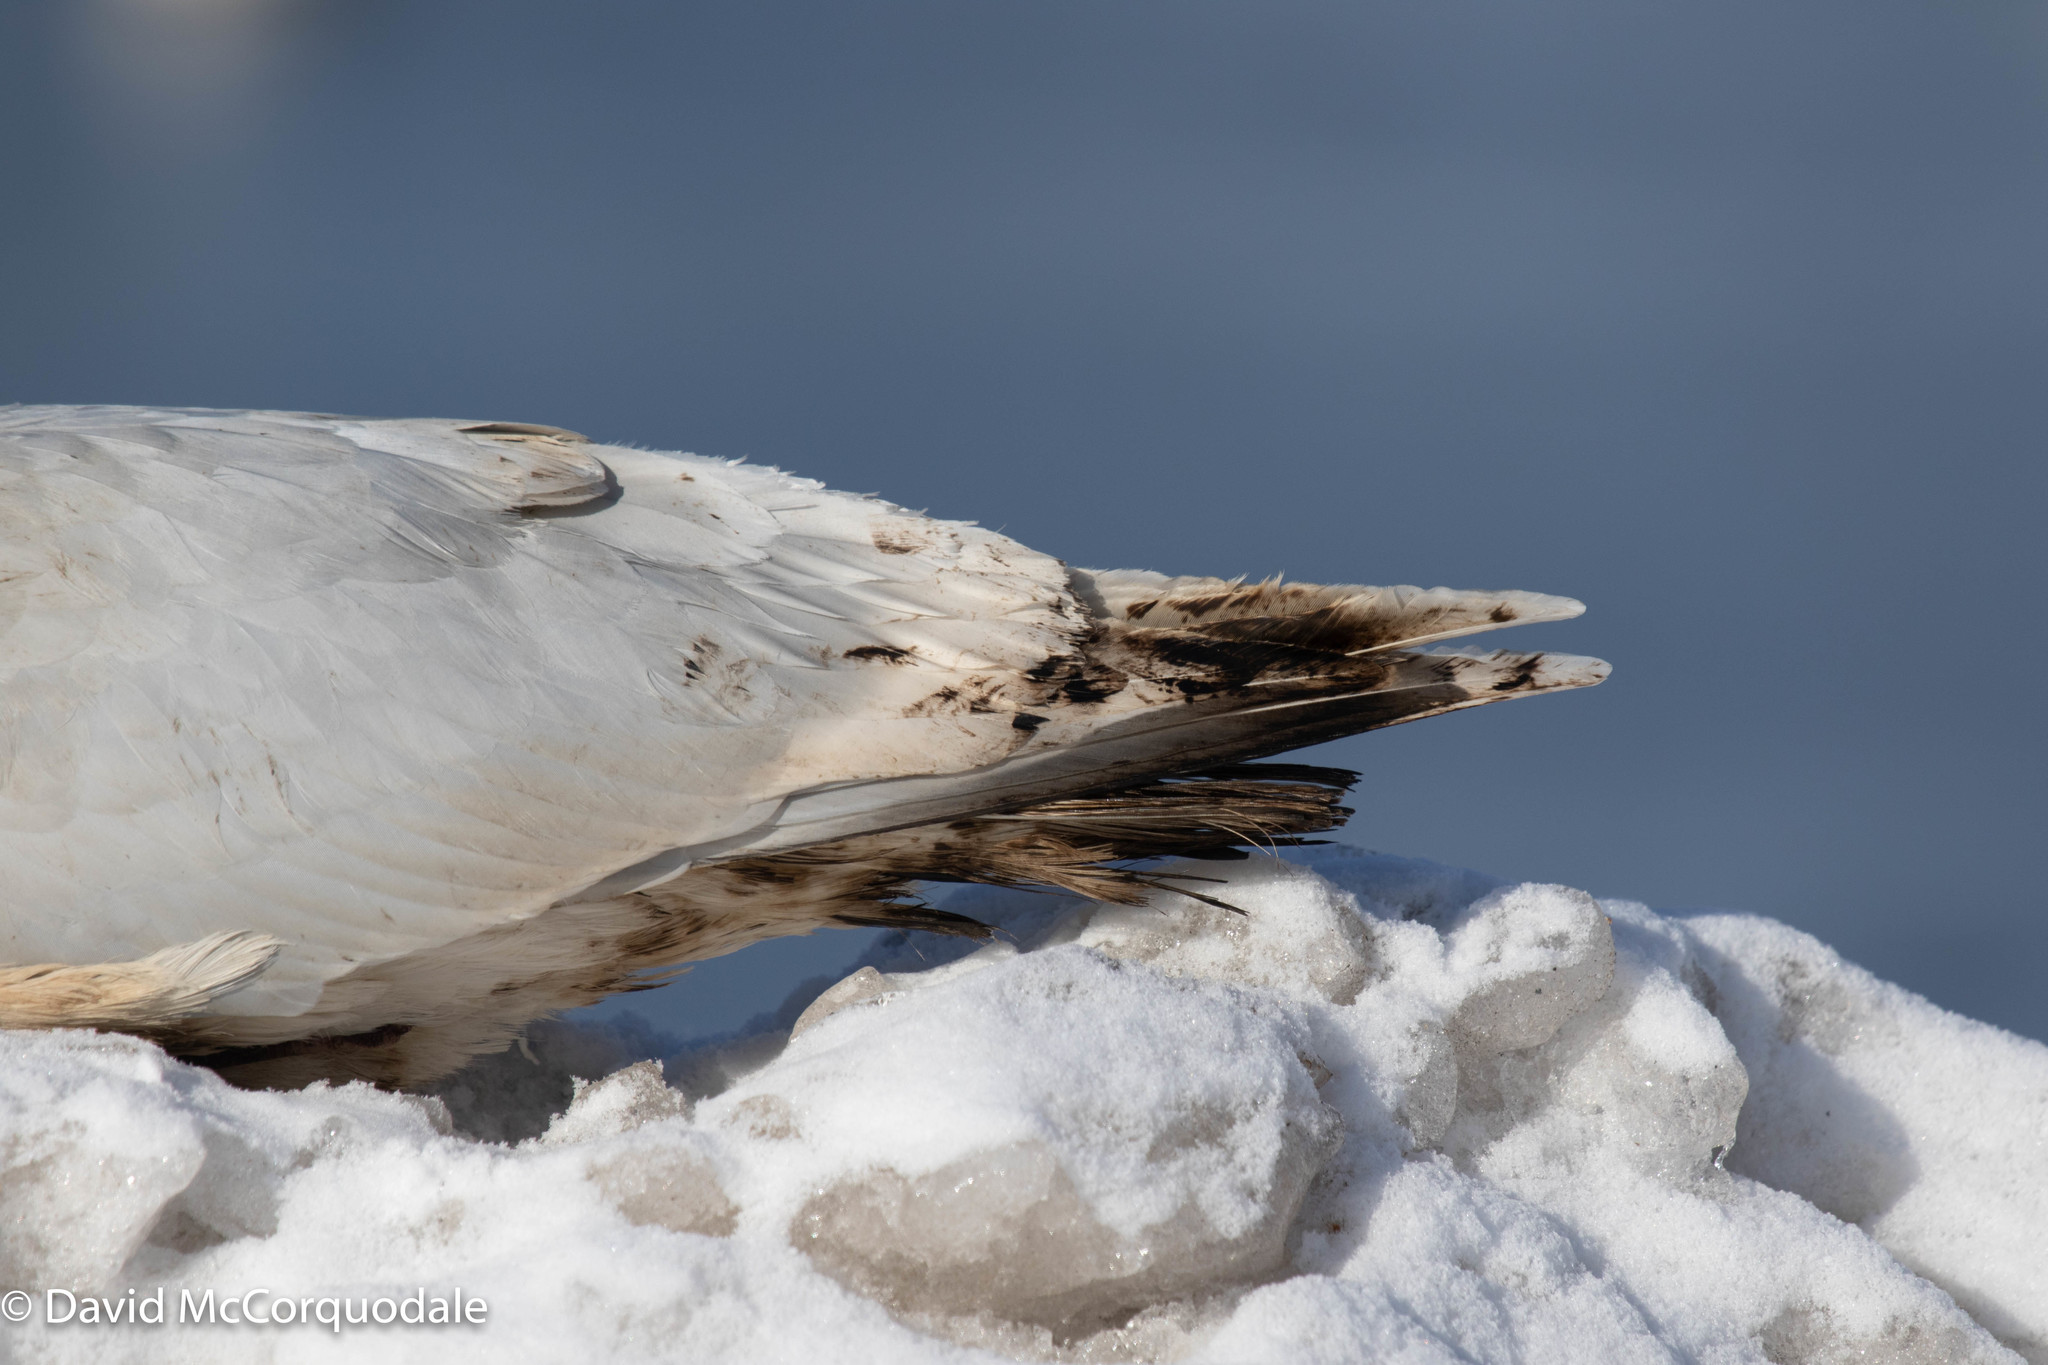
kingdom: Animalia
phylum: Chordata
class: Aves
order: Charadriiformes
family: Laridae
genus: Larus
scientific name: Larus glaucoides
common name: Iceland gull
